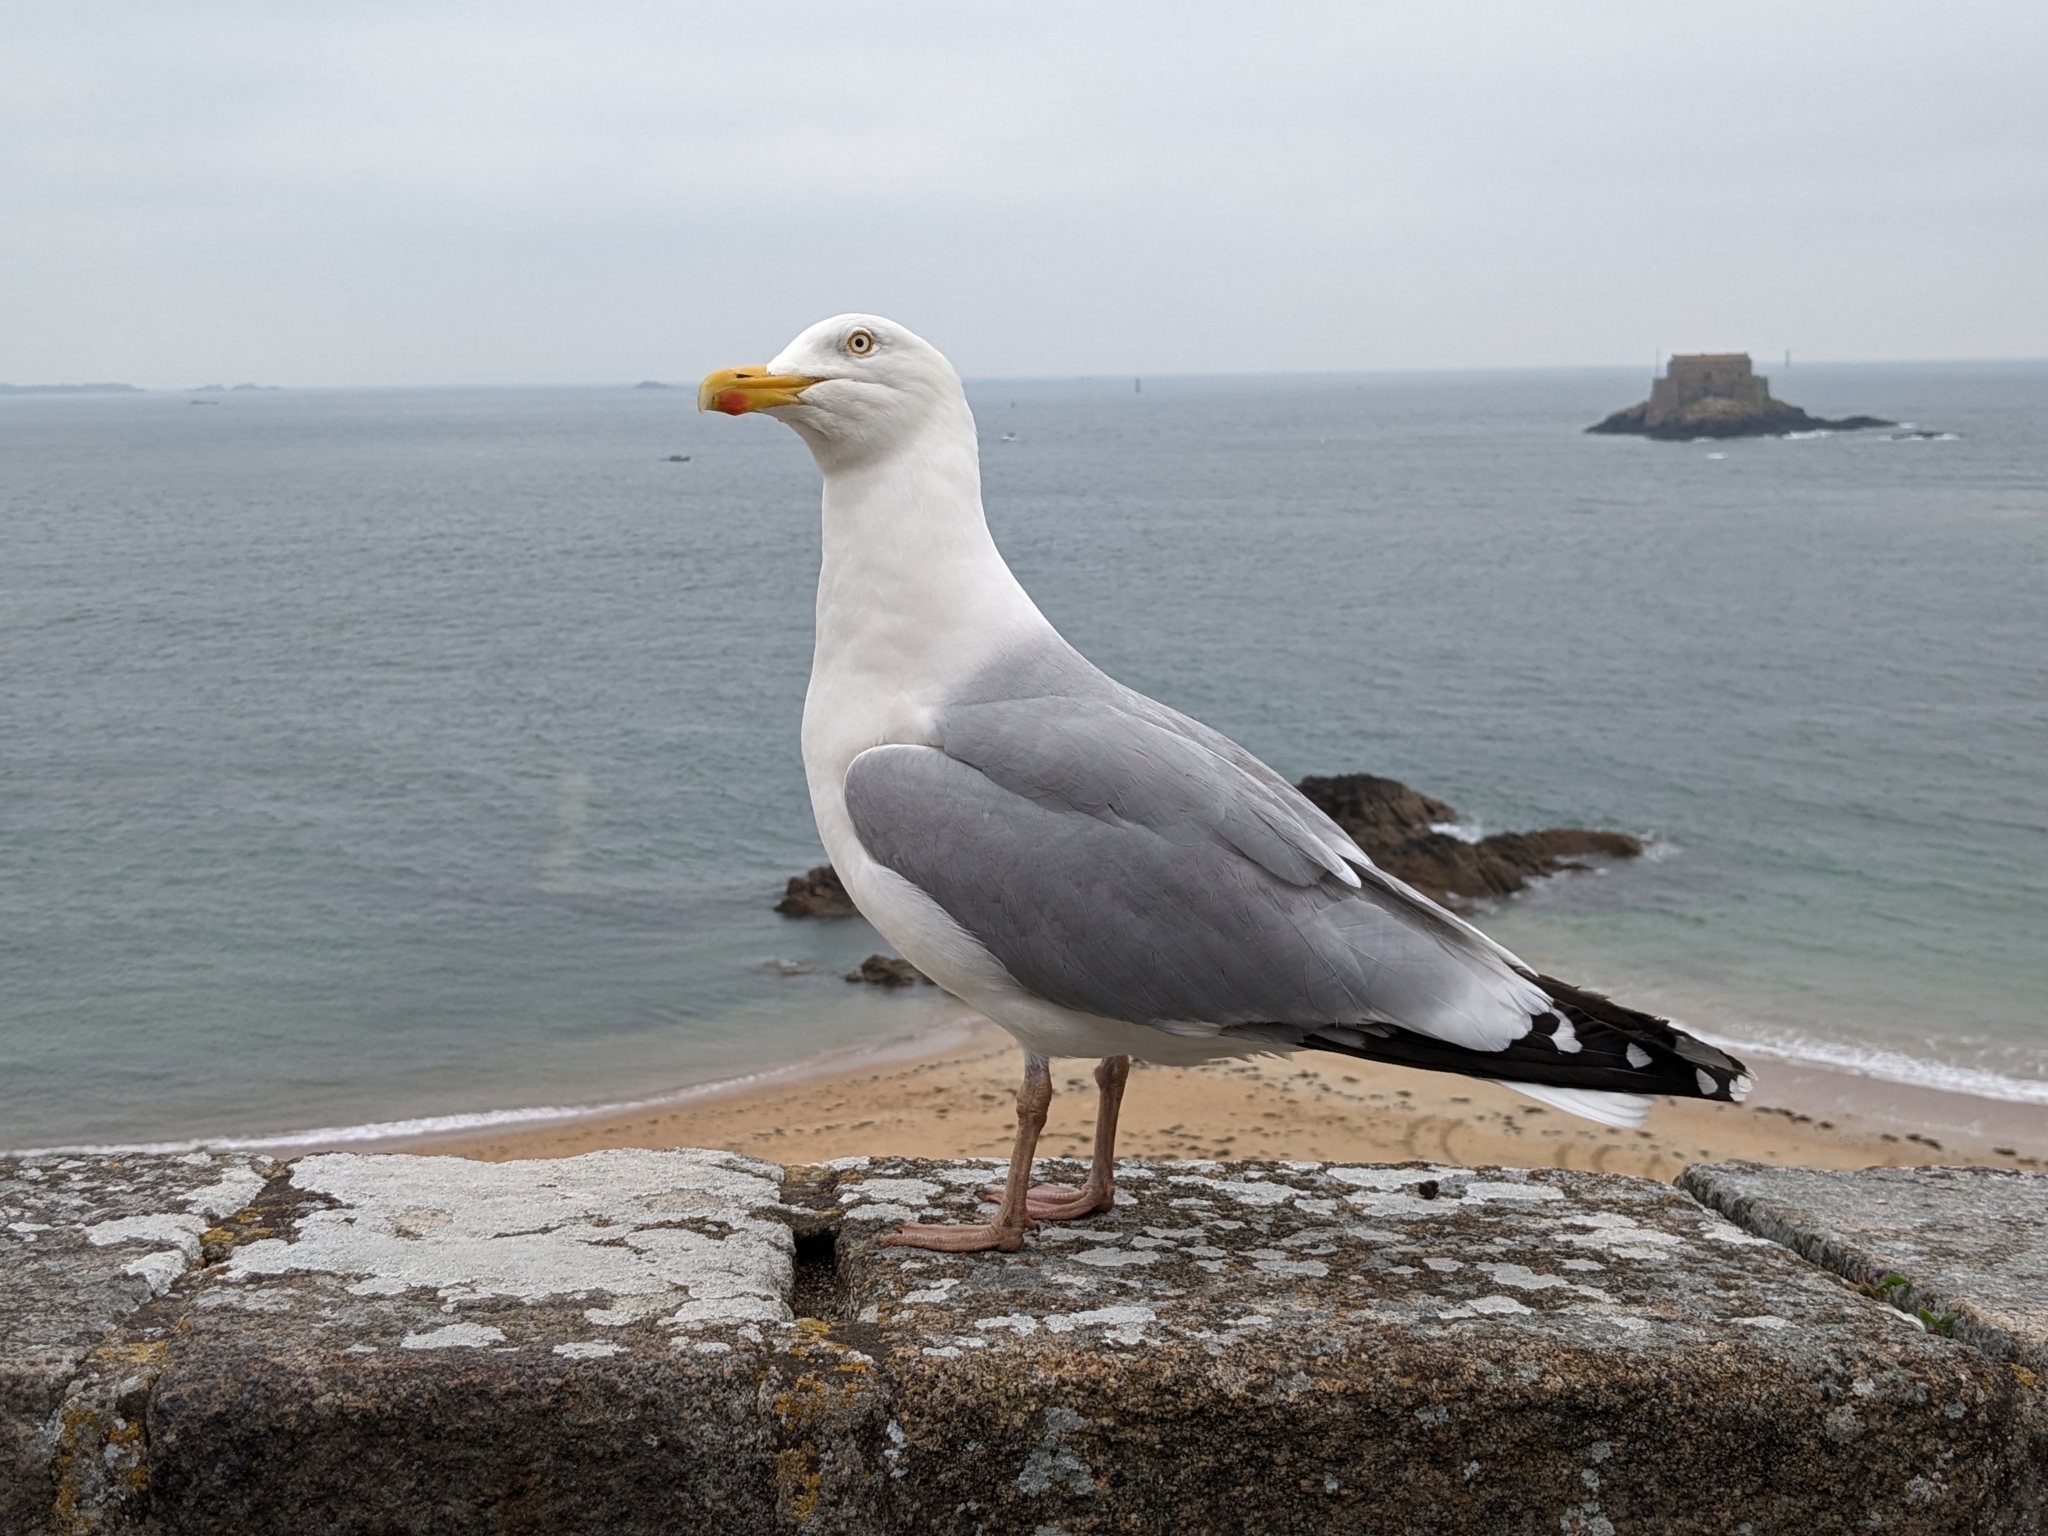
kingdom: Animalia
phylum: Chordata
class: Aves
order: Charadriiformes
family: Laridae
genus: Larus
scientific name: Larus argentatus
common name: Herring gull
